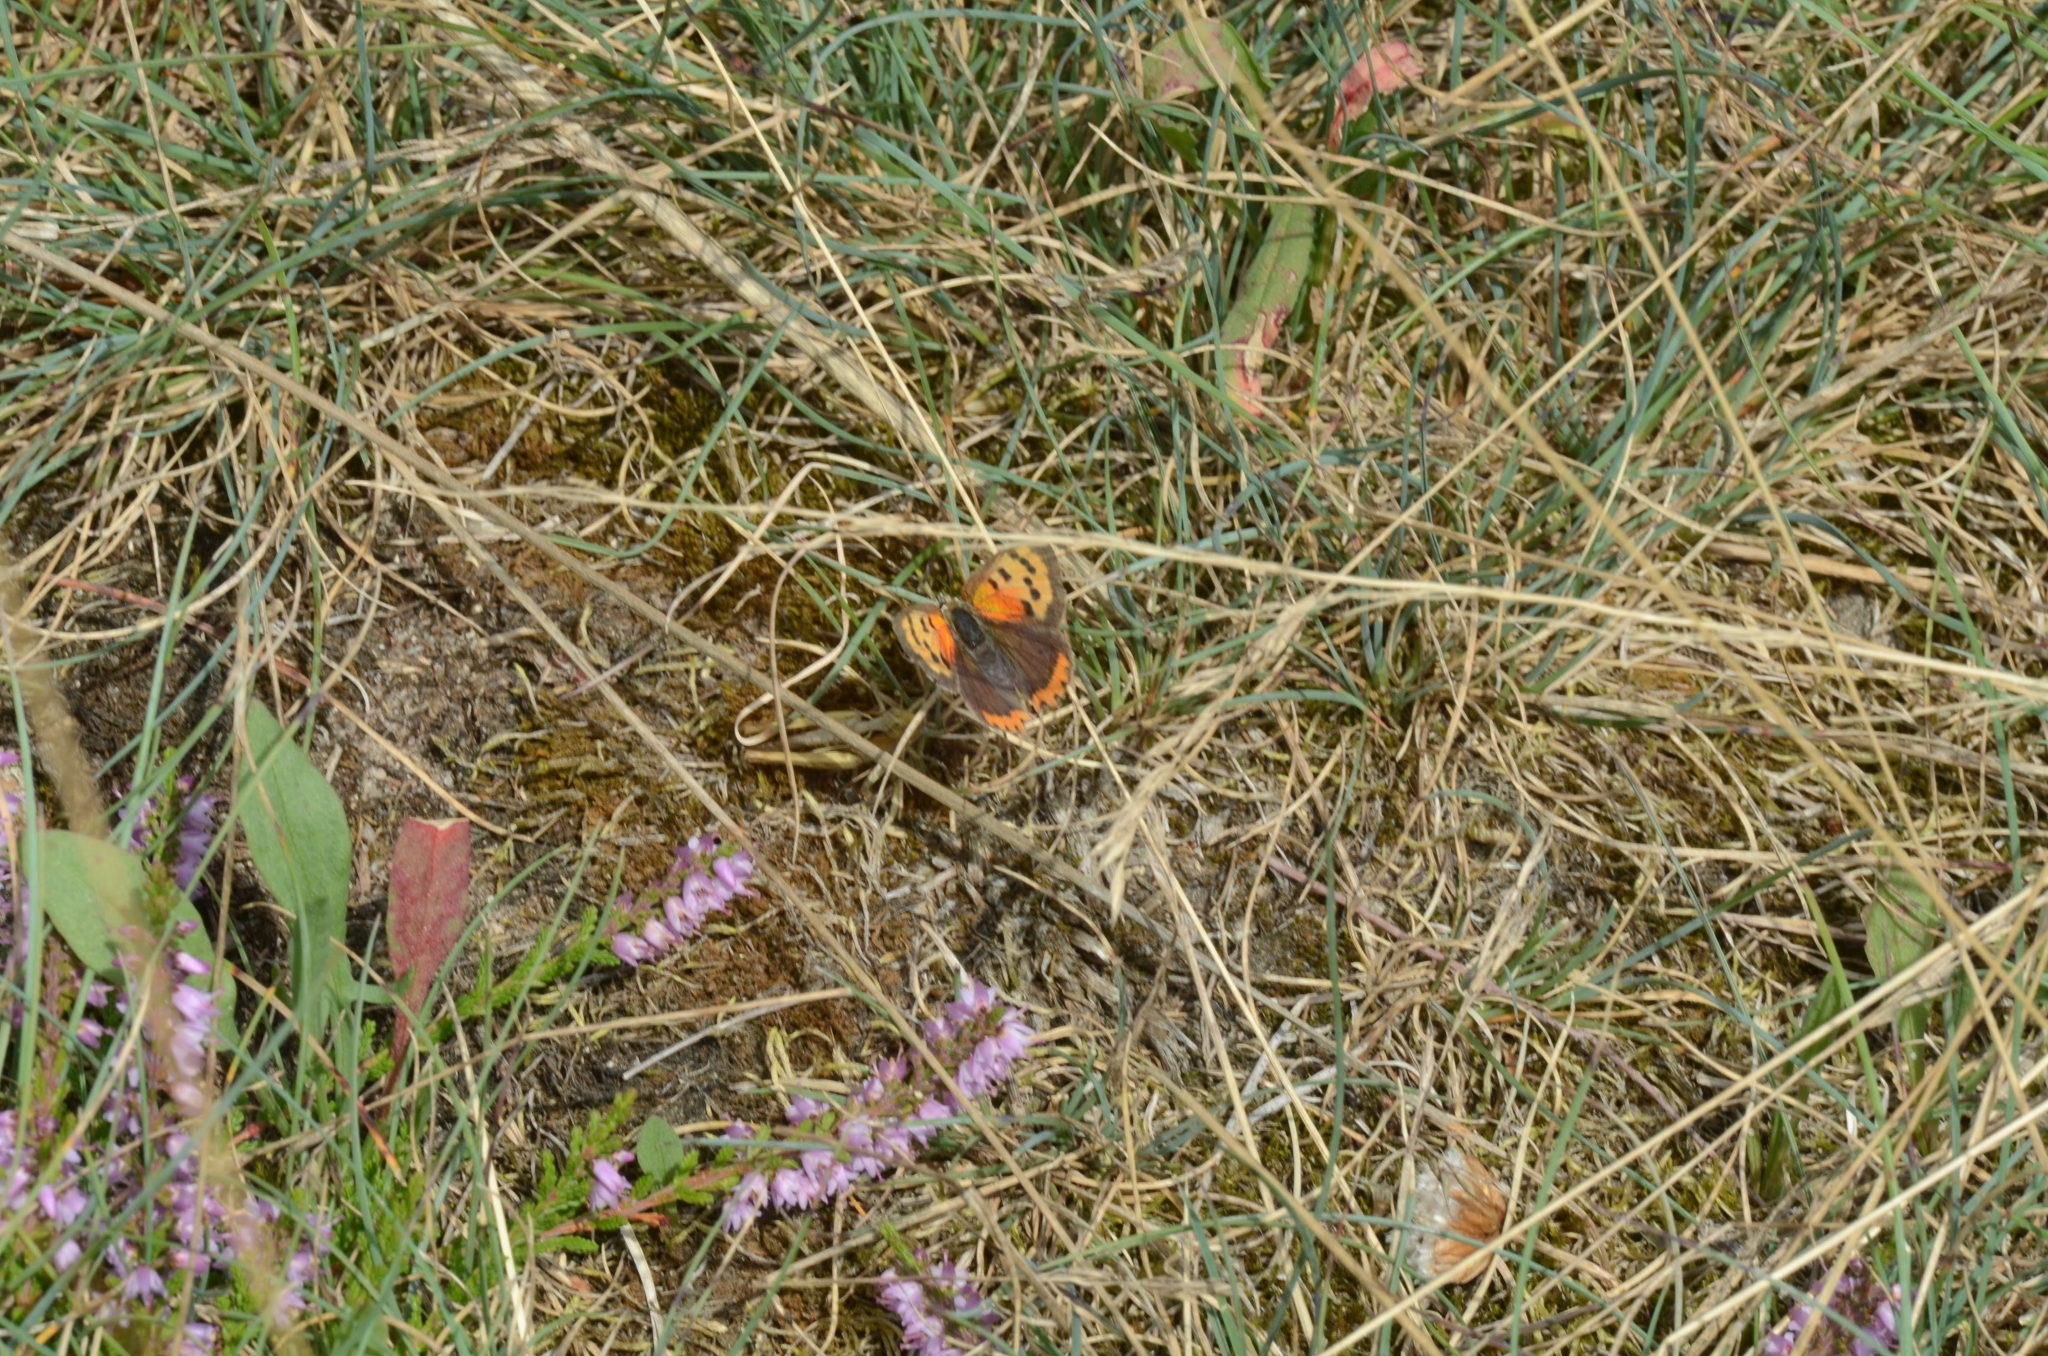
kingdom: Animalia
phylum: Arthropoda
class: Insecta
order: Lepidoptera
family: Lycaenidae
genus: Lycaena
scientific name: Lycaena phlaeas
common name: Small copper
